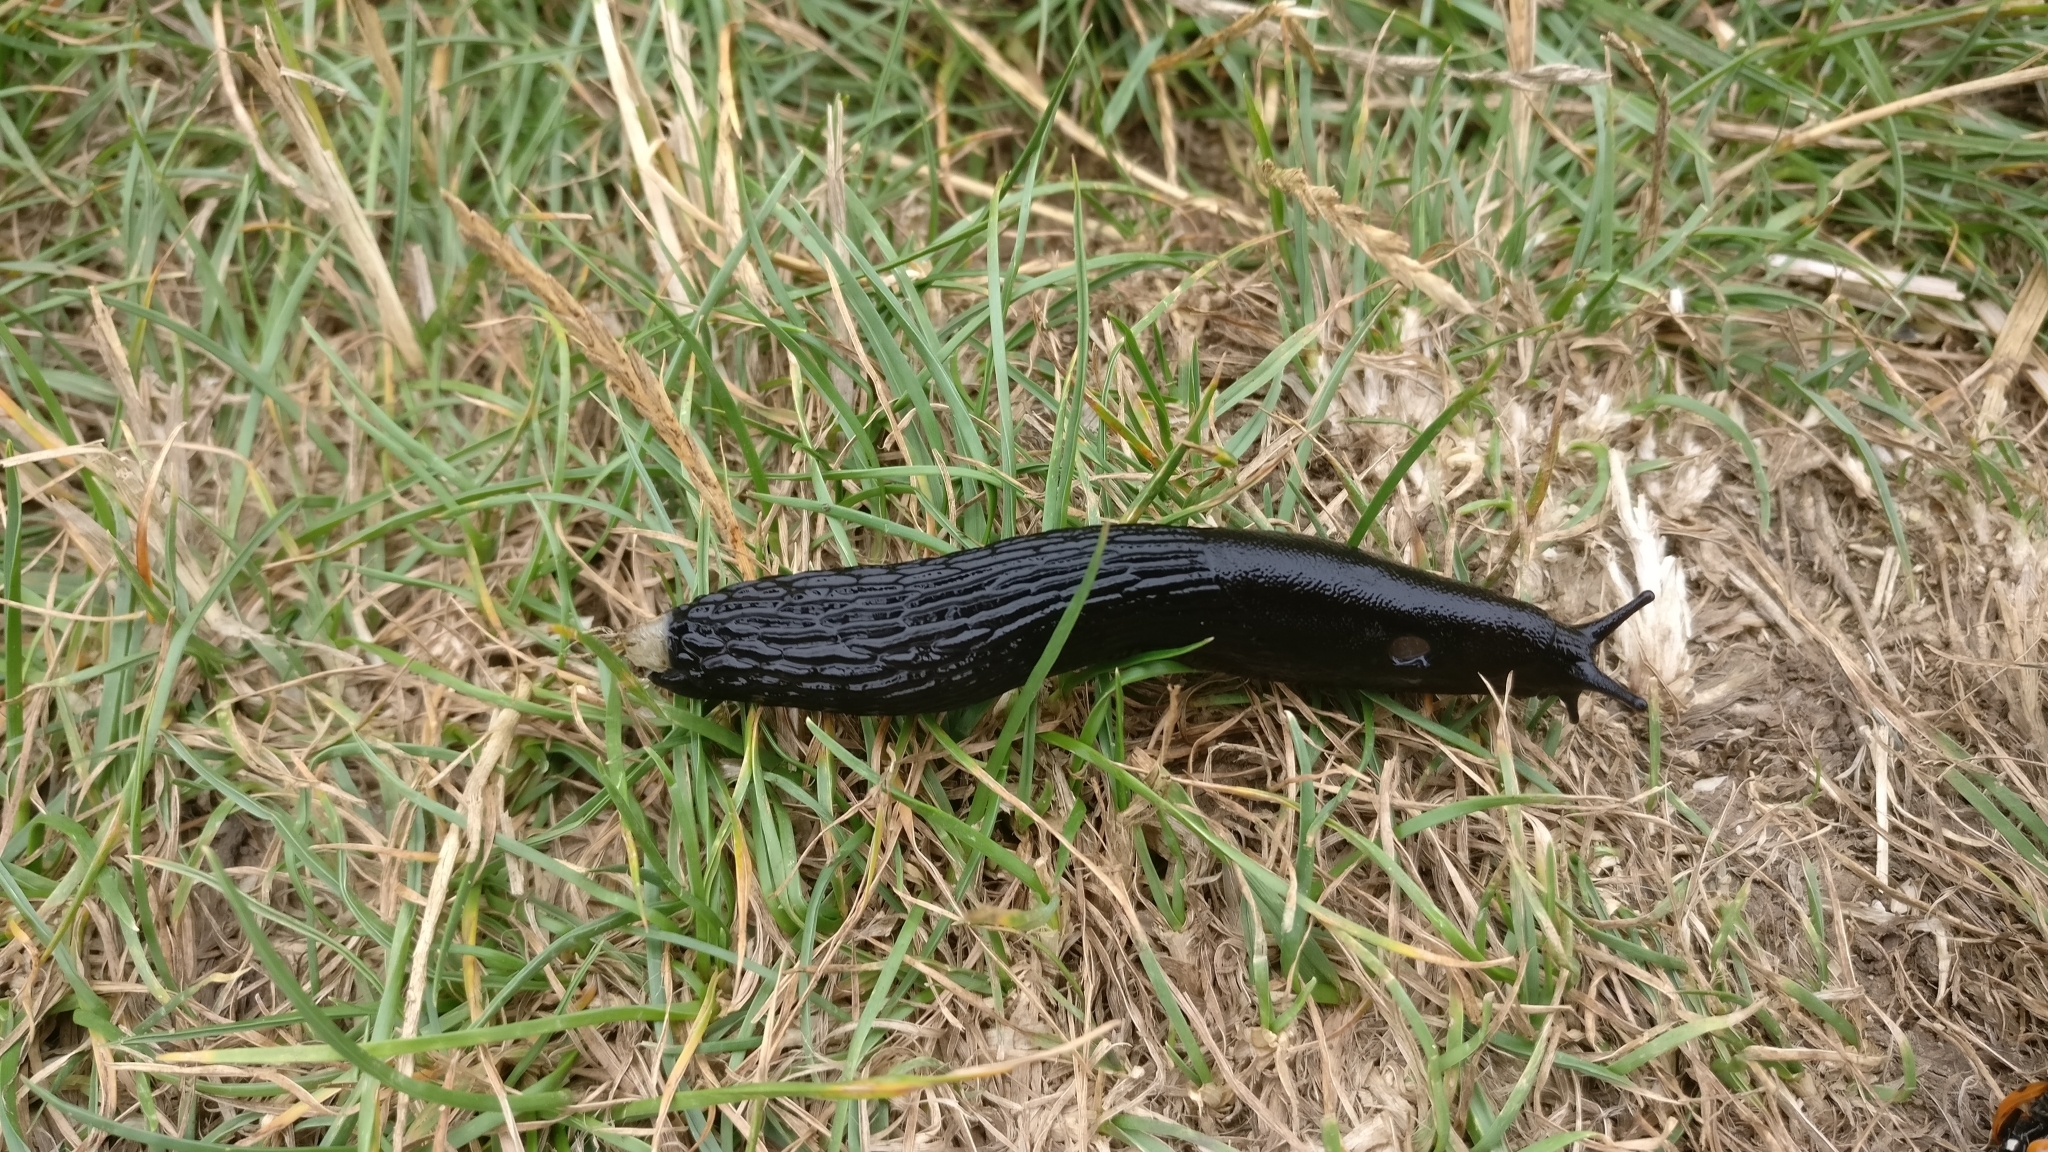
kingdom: Animalia
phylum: Mollusca
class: Gastropoda
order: Stylommatophora
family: Arionidae
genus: Arion
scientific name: Arion ater
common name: Black arion
